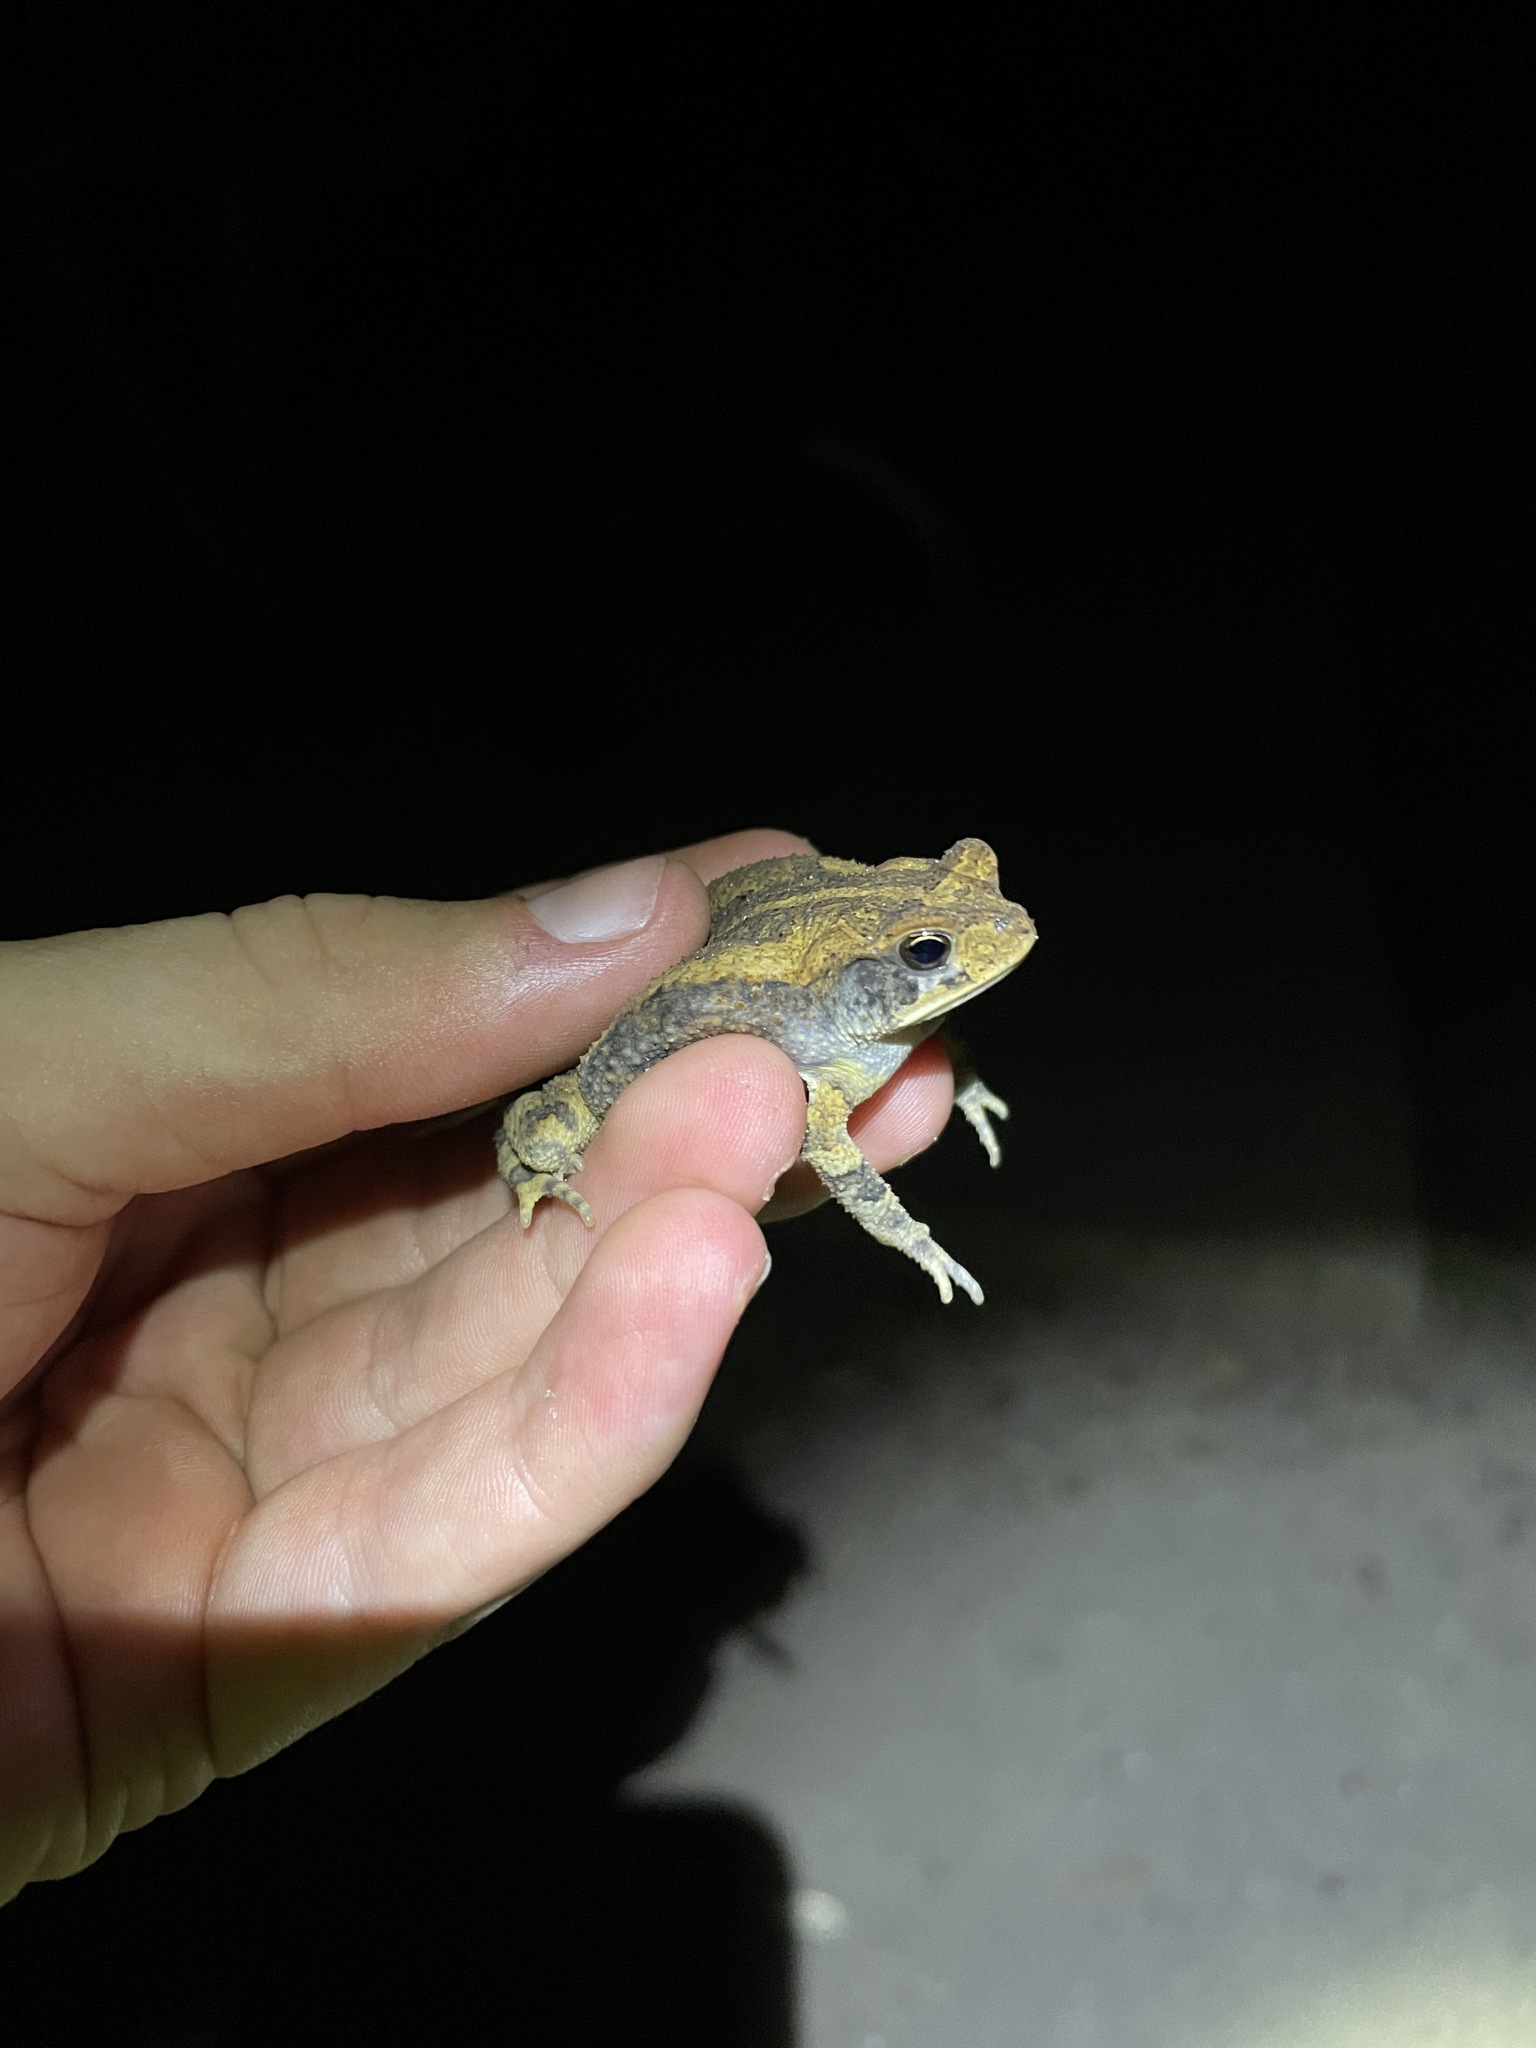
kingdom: Animalia
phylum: Chordata
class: Amphibia
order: Anura
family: Bufonidae
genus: Incilius
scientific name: Incilius nebulifer
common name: Gulf coast toad
